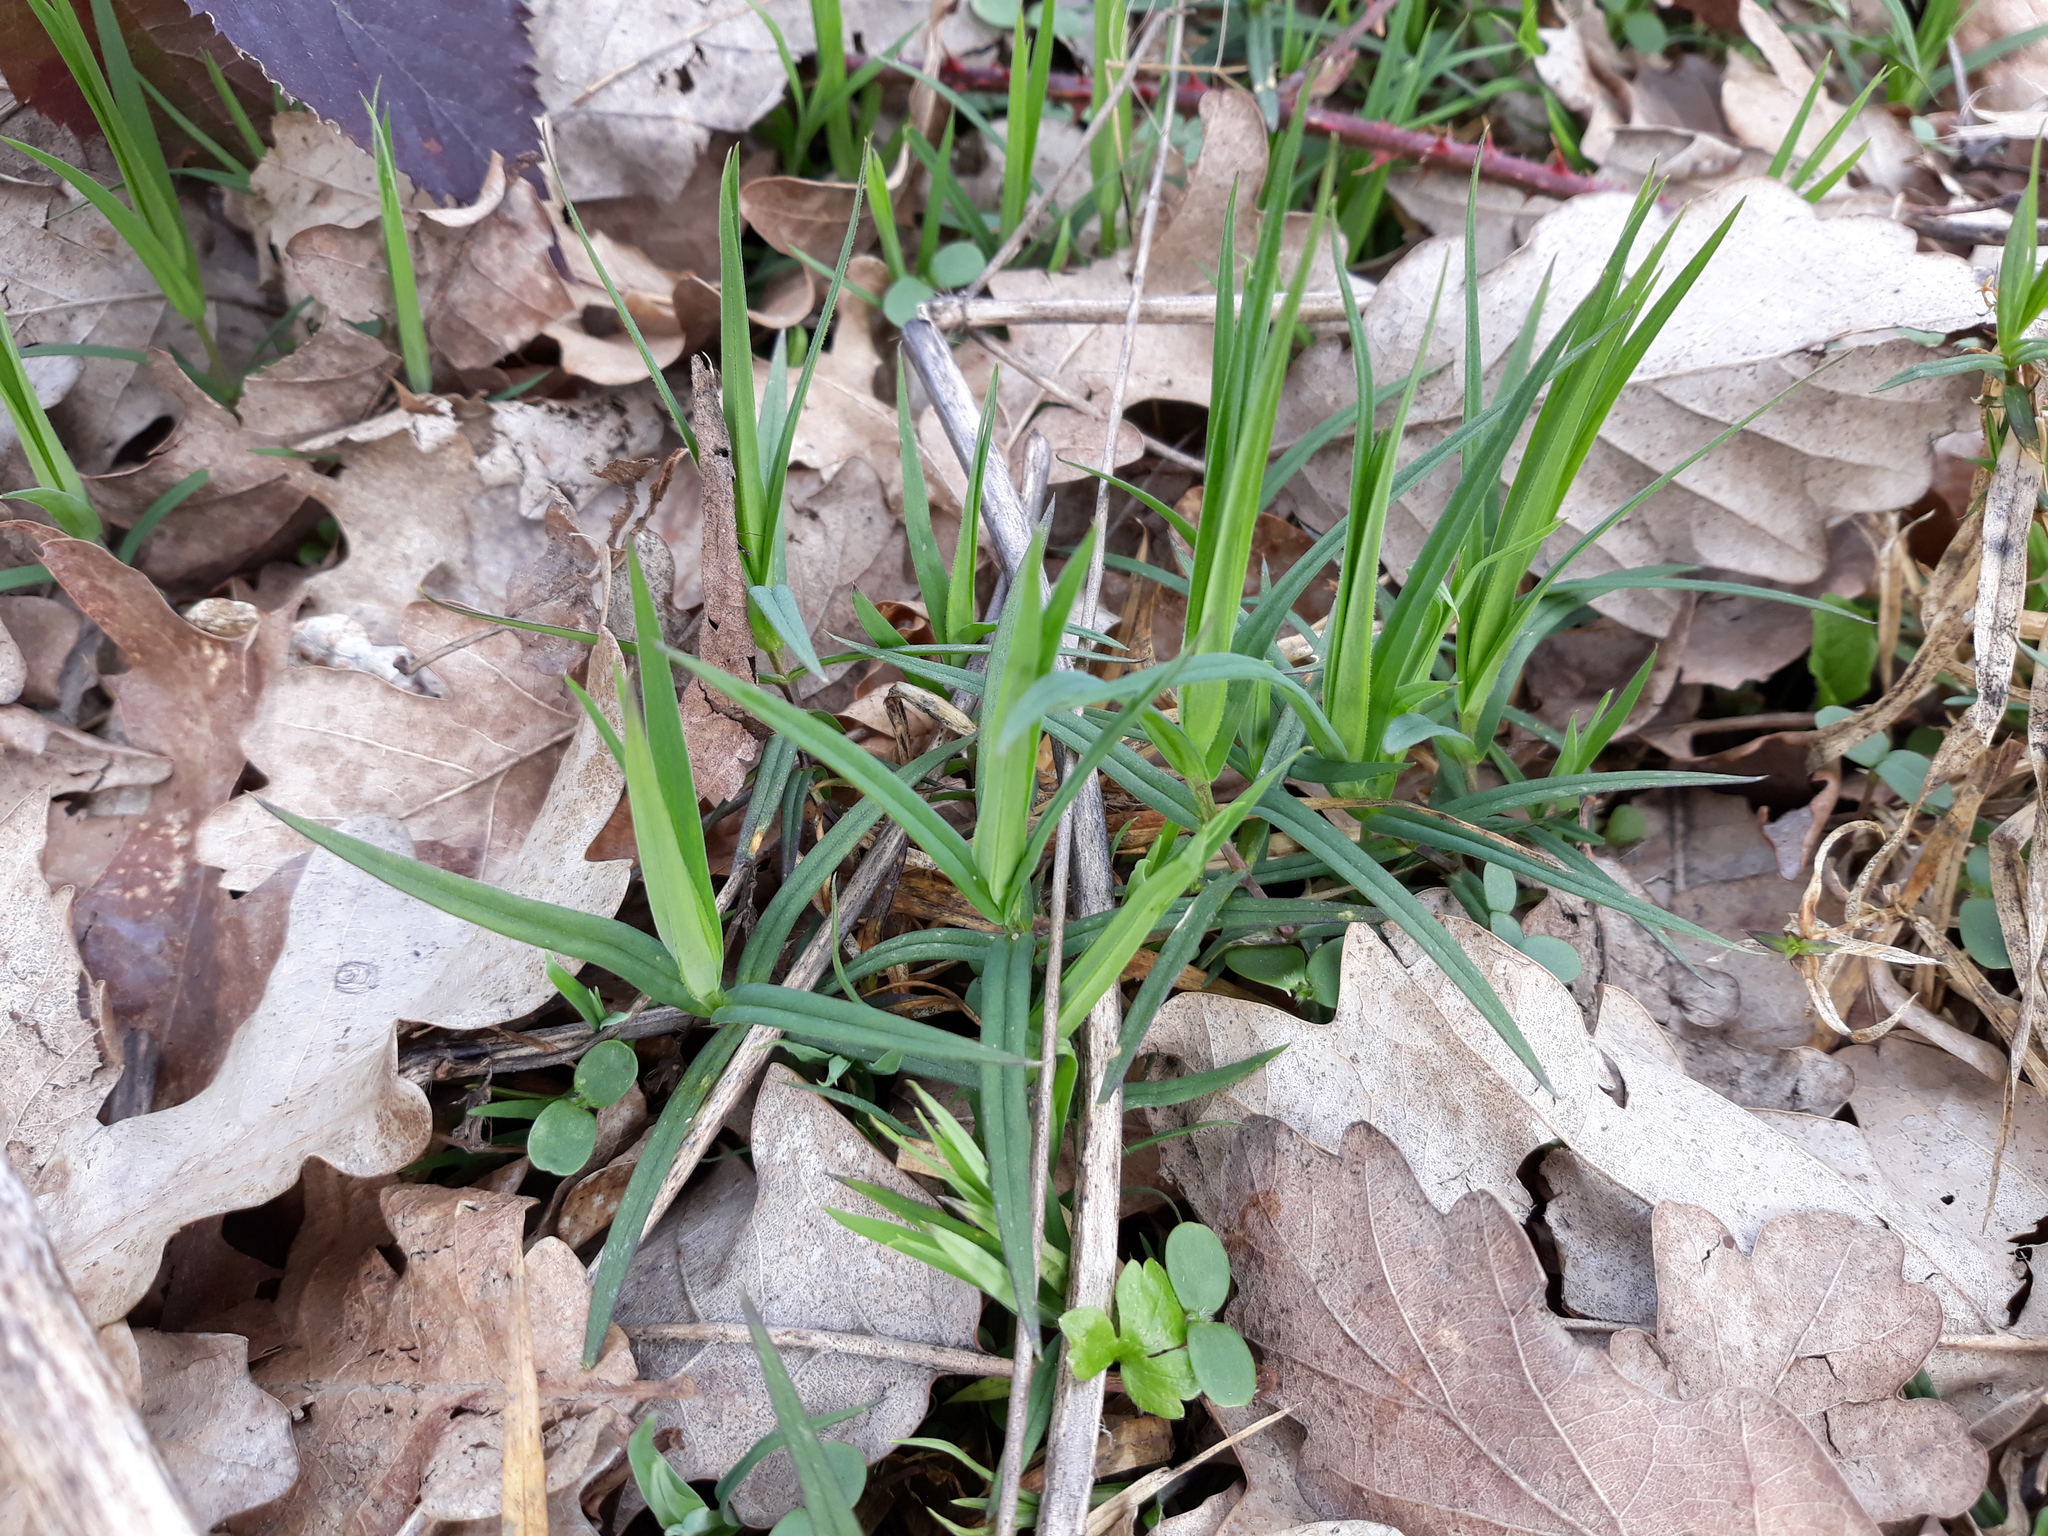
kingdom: Plantae
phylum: Tracheophyta
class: Magnoliopsida
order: Caryophyllales
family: Caryophyllaceae
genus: Rabelera
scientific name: Rabelera holostea
